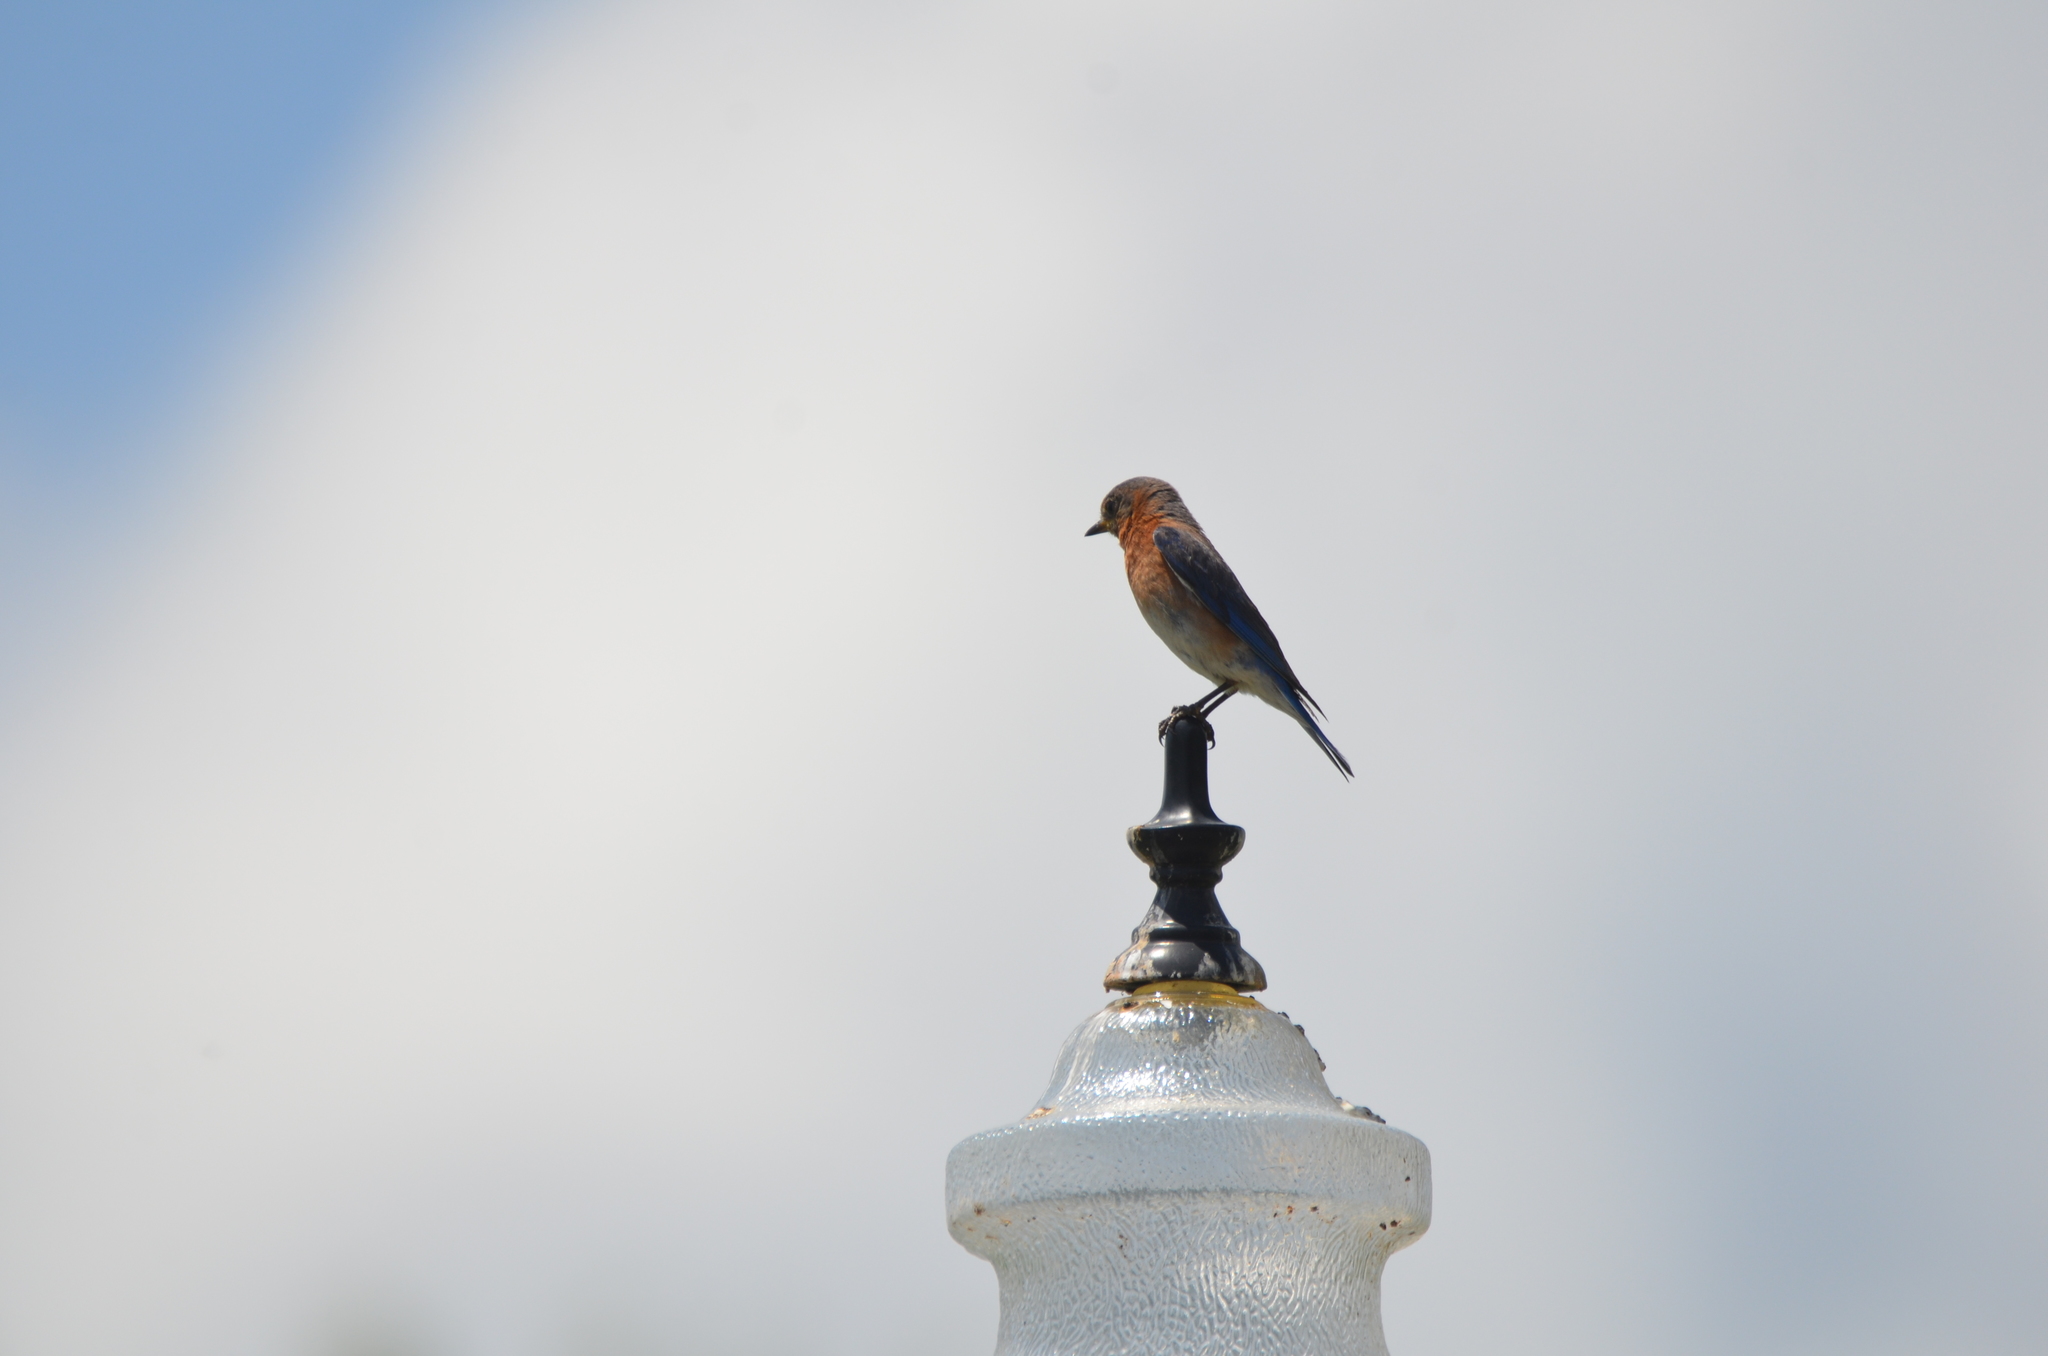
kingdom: Animalia
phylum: Chordata
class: Aves
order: Passeriformes
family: Turdidae
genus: Sialia
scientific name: Sialia sialis
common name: Eastern bluebird
